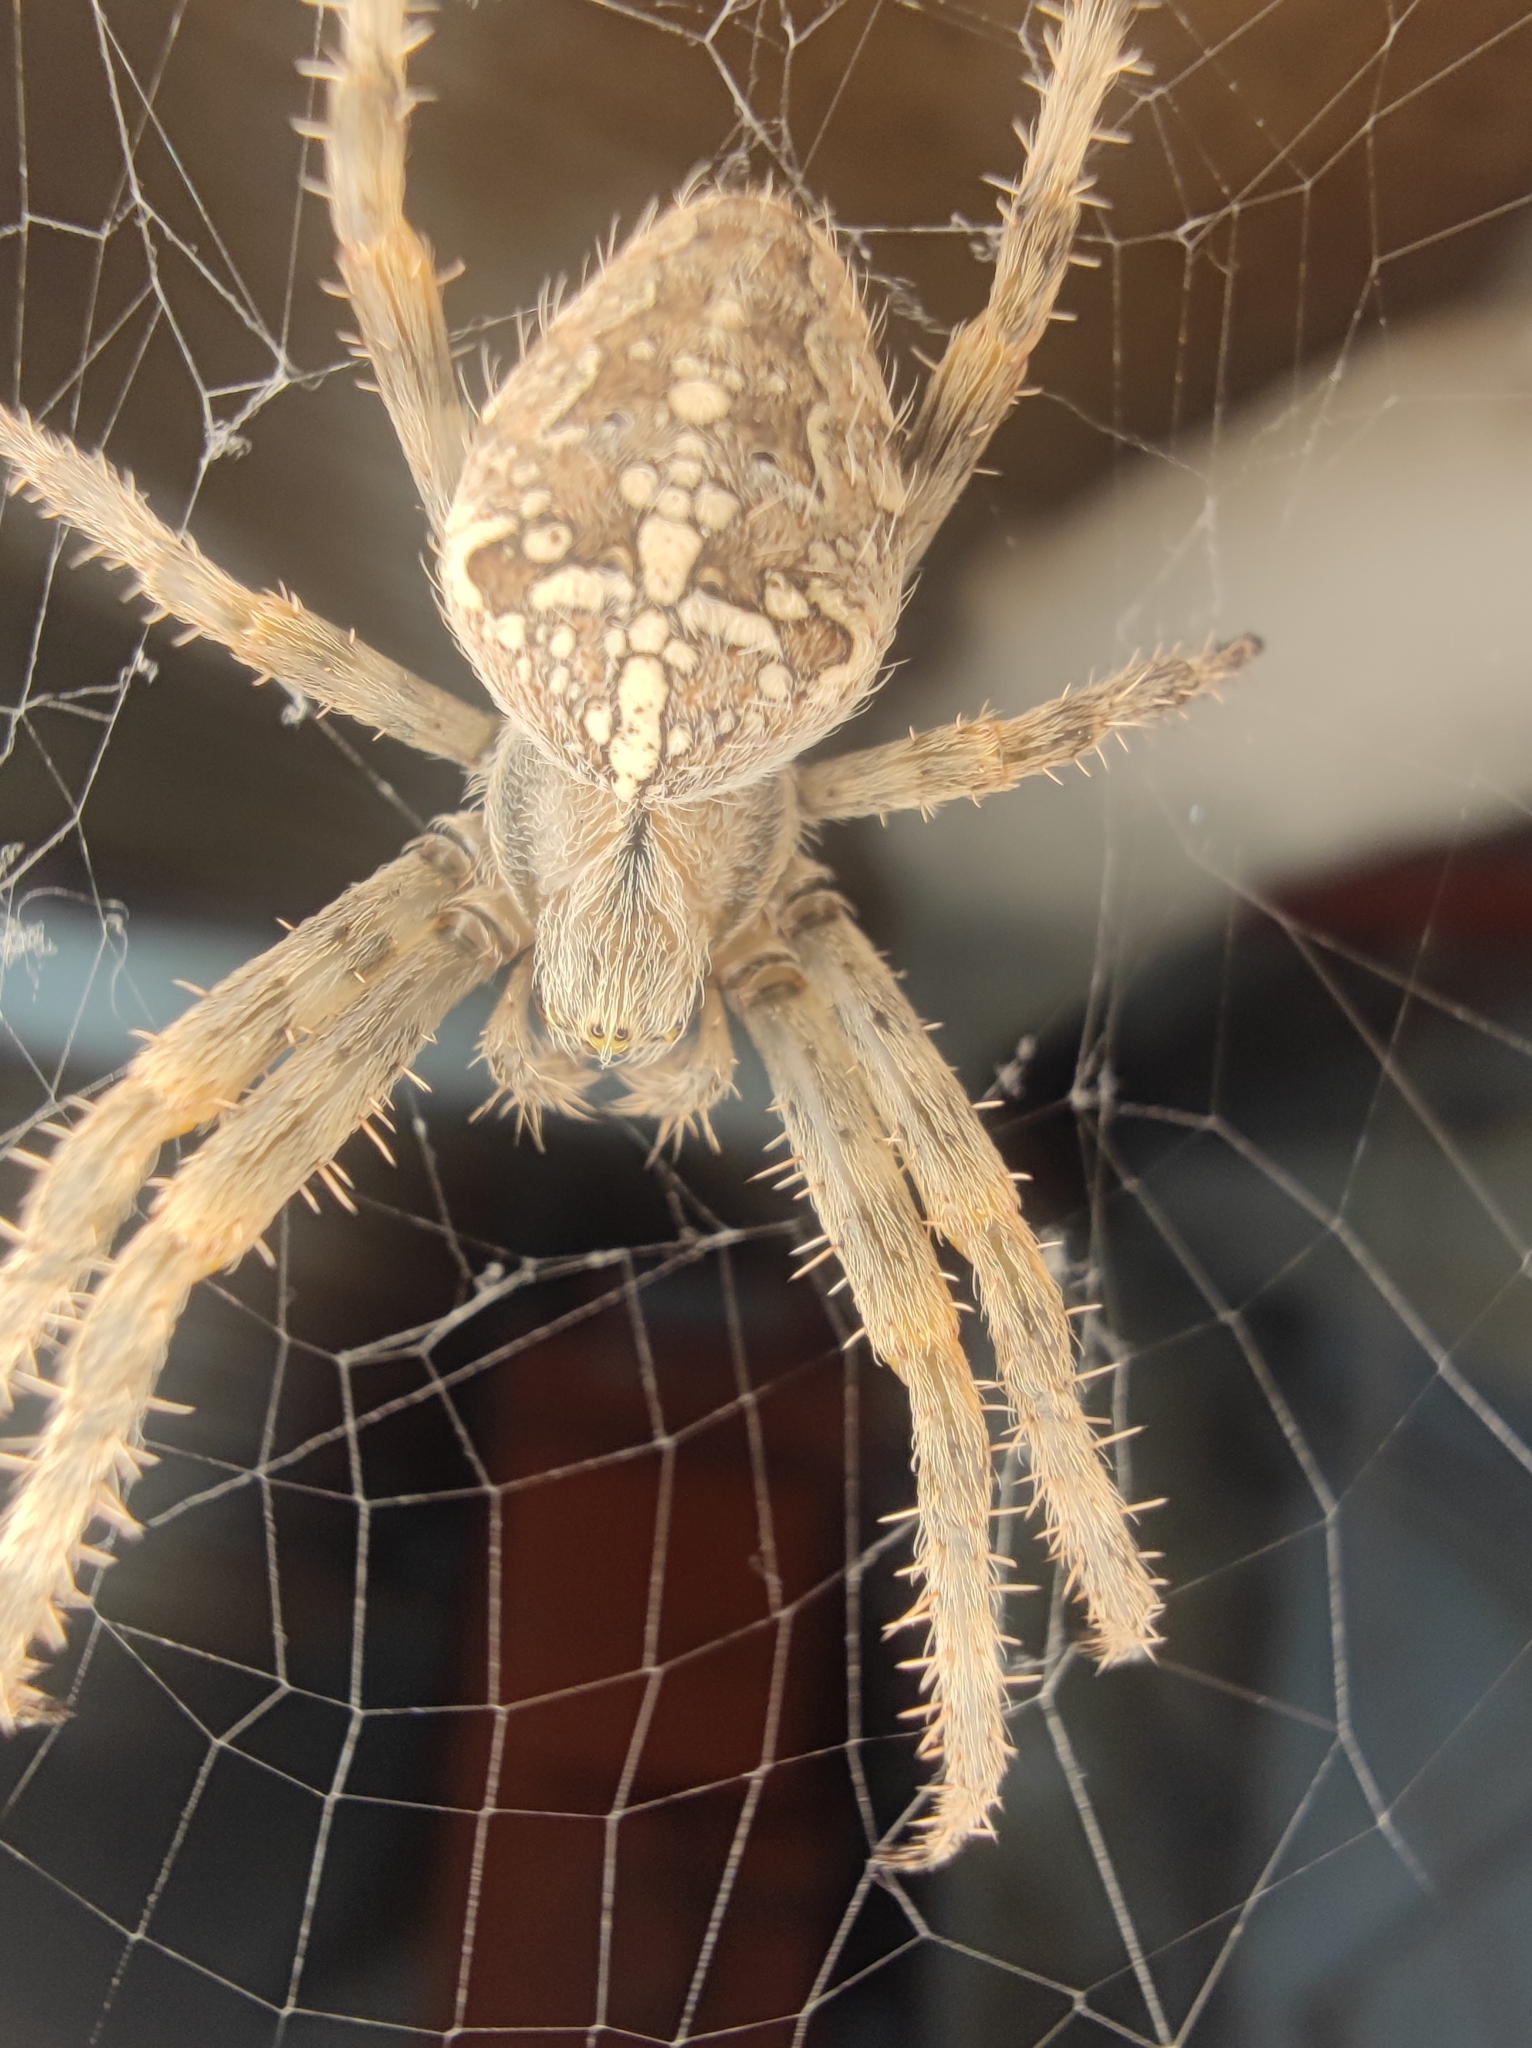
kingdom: Animalia
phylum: Arthropoda
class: Arachnida
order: Araneae
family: Araneidae
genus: Araneus
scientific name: Araneus diadematus
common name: Cross orbweaver
